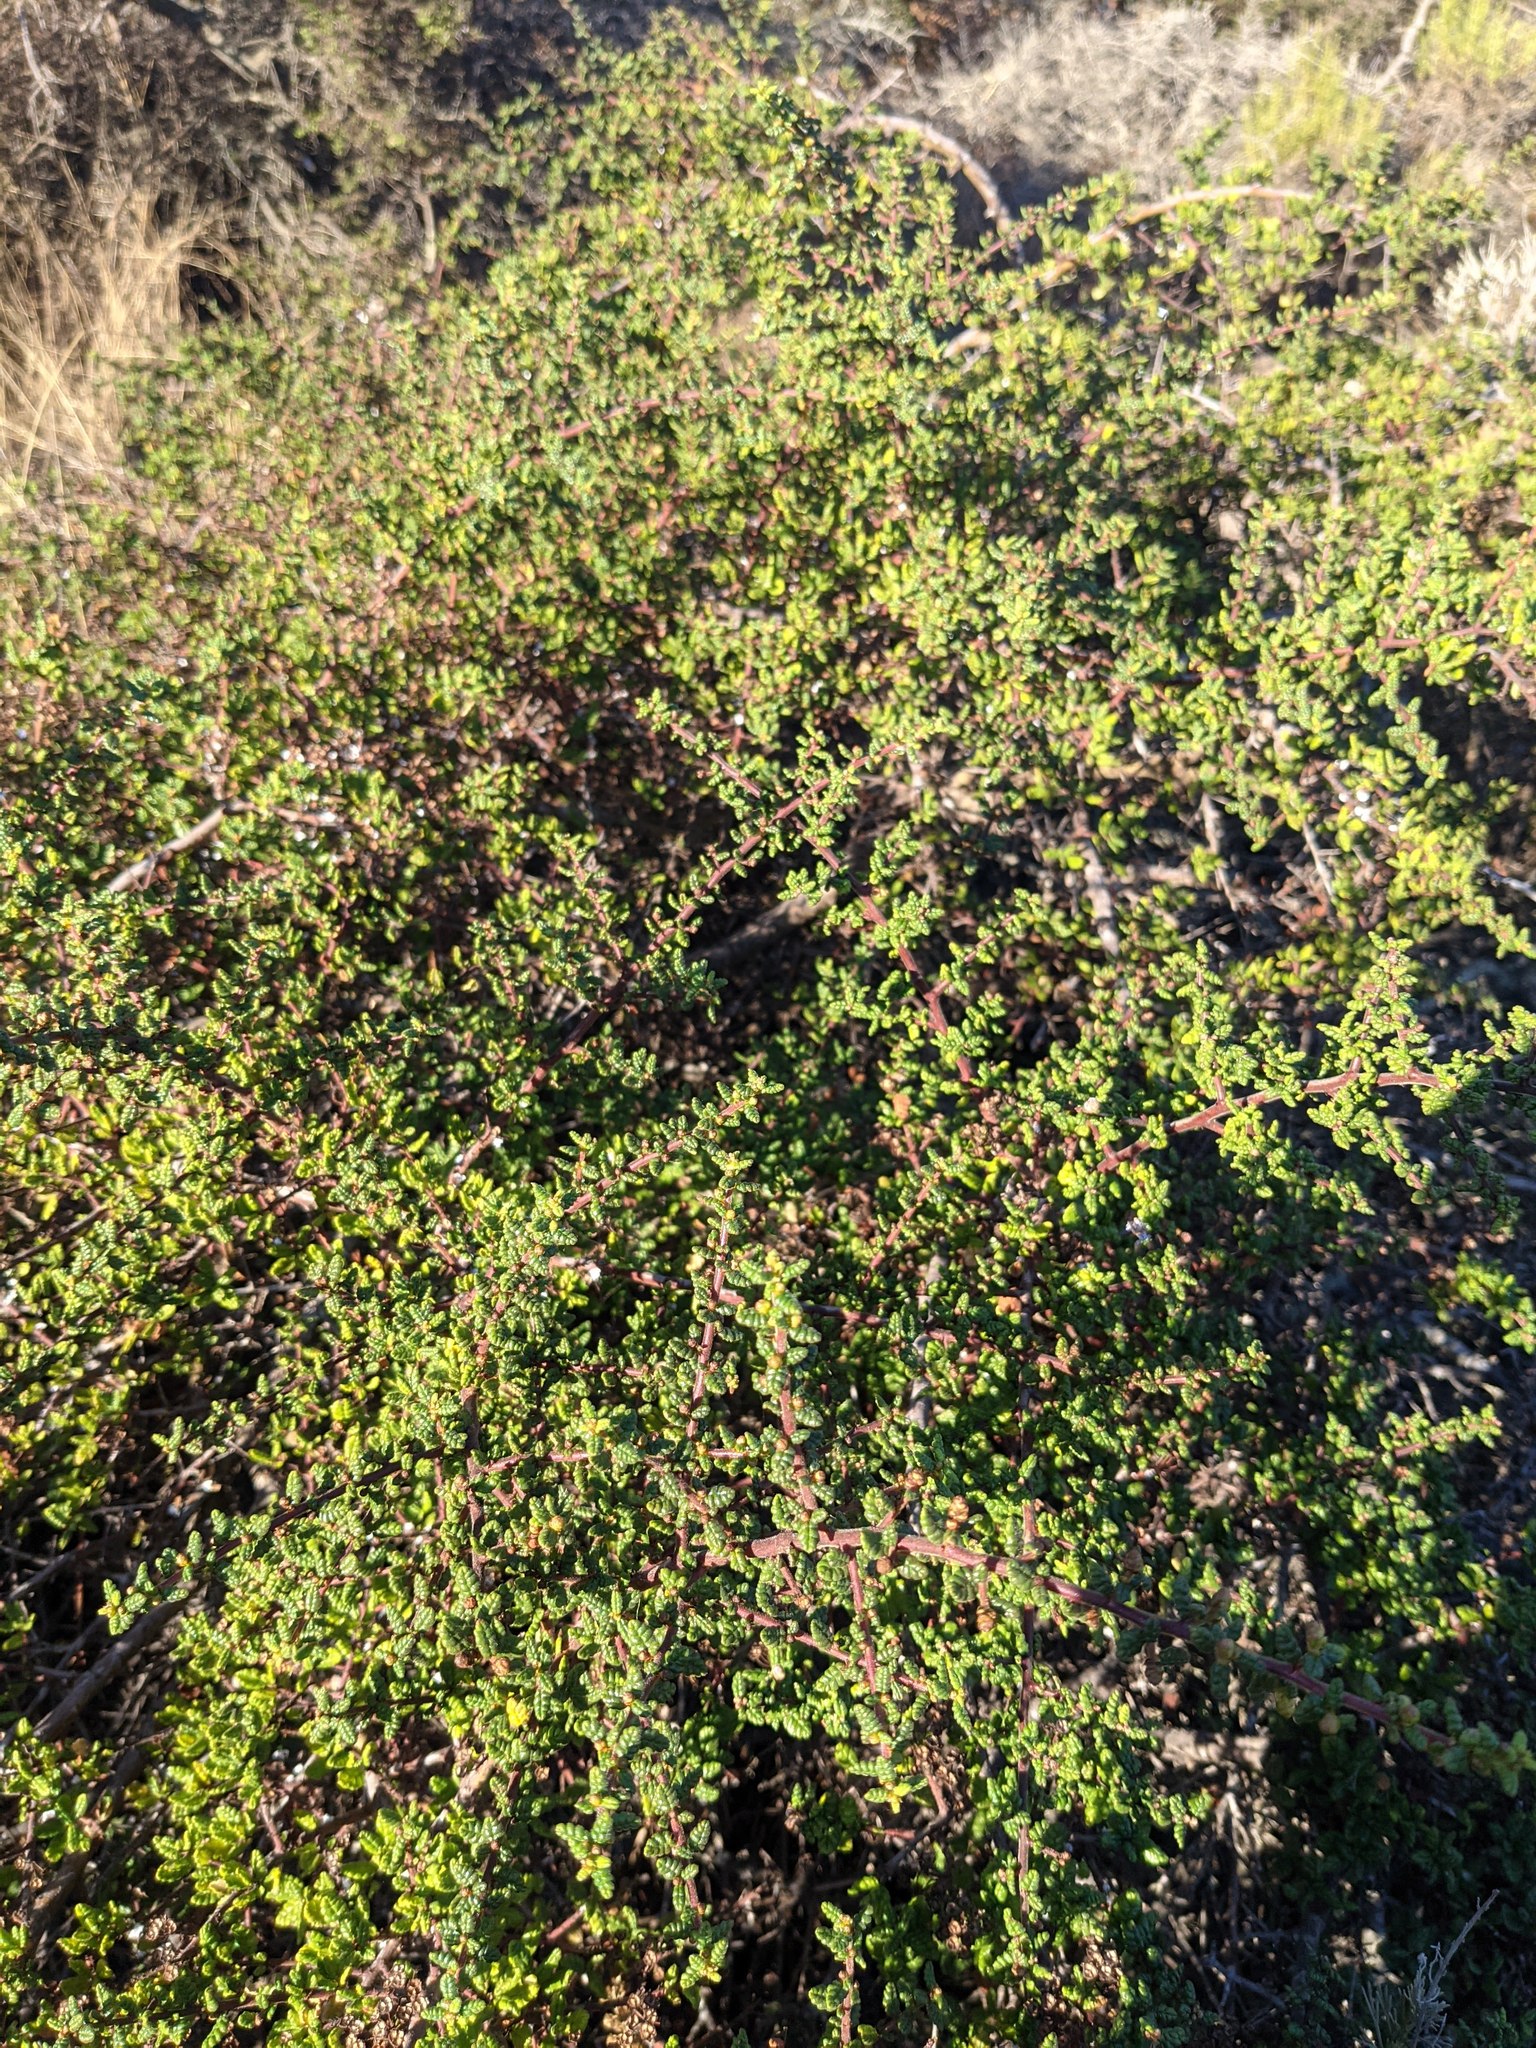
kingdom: Plantae
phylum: Tracheophyta
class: Magnoliopsida
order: Rosales
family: Rhamnaceae
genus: Ceanothus
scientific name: Ceanothus impressus
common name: Santa barbara ceanothus
